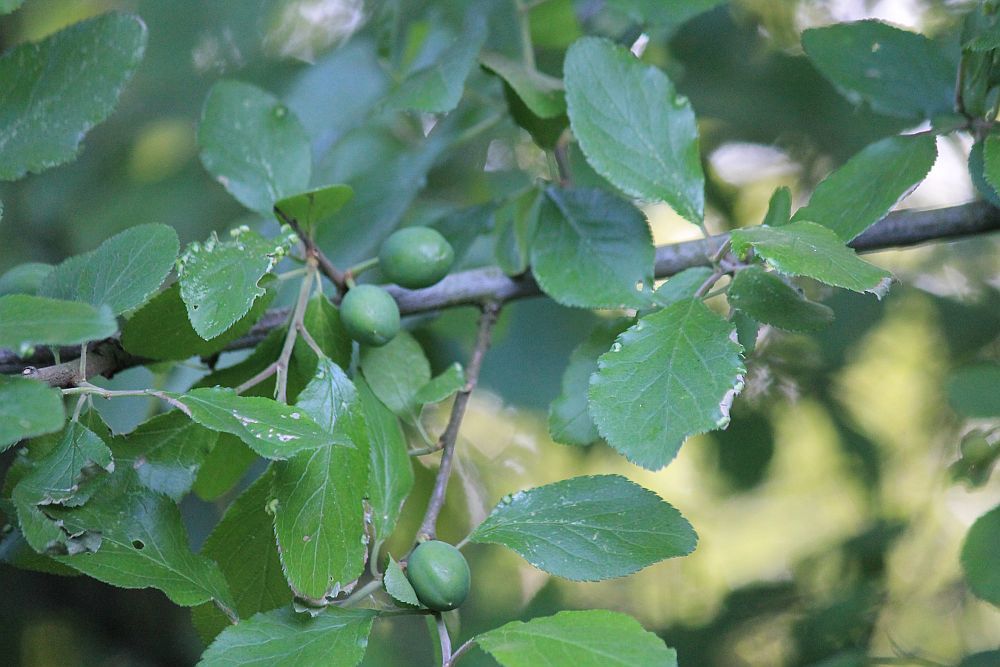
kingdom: Plantae
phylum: Tracheophyta
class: Magnoliopsida
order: Rosales
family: Rosaceae
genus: Prunus
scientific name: Prunus
